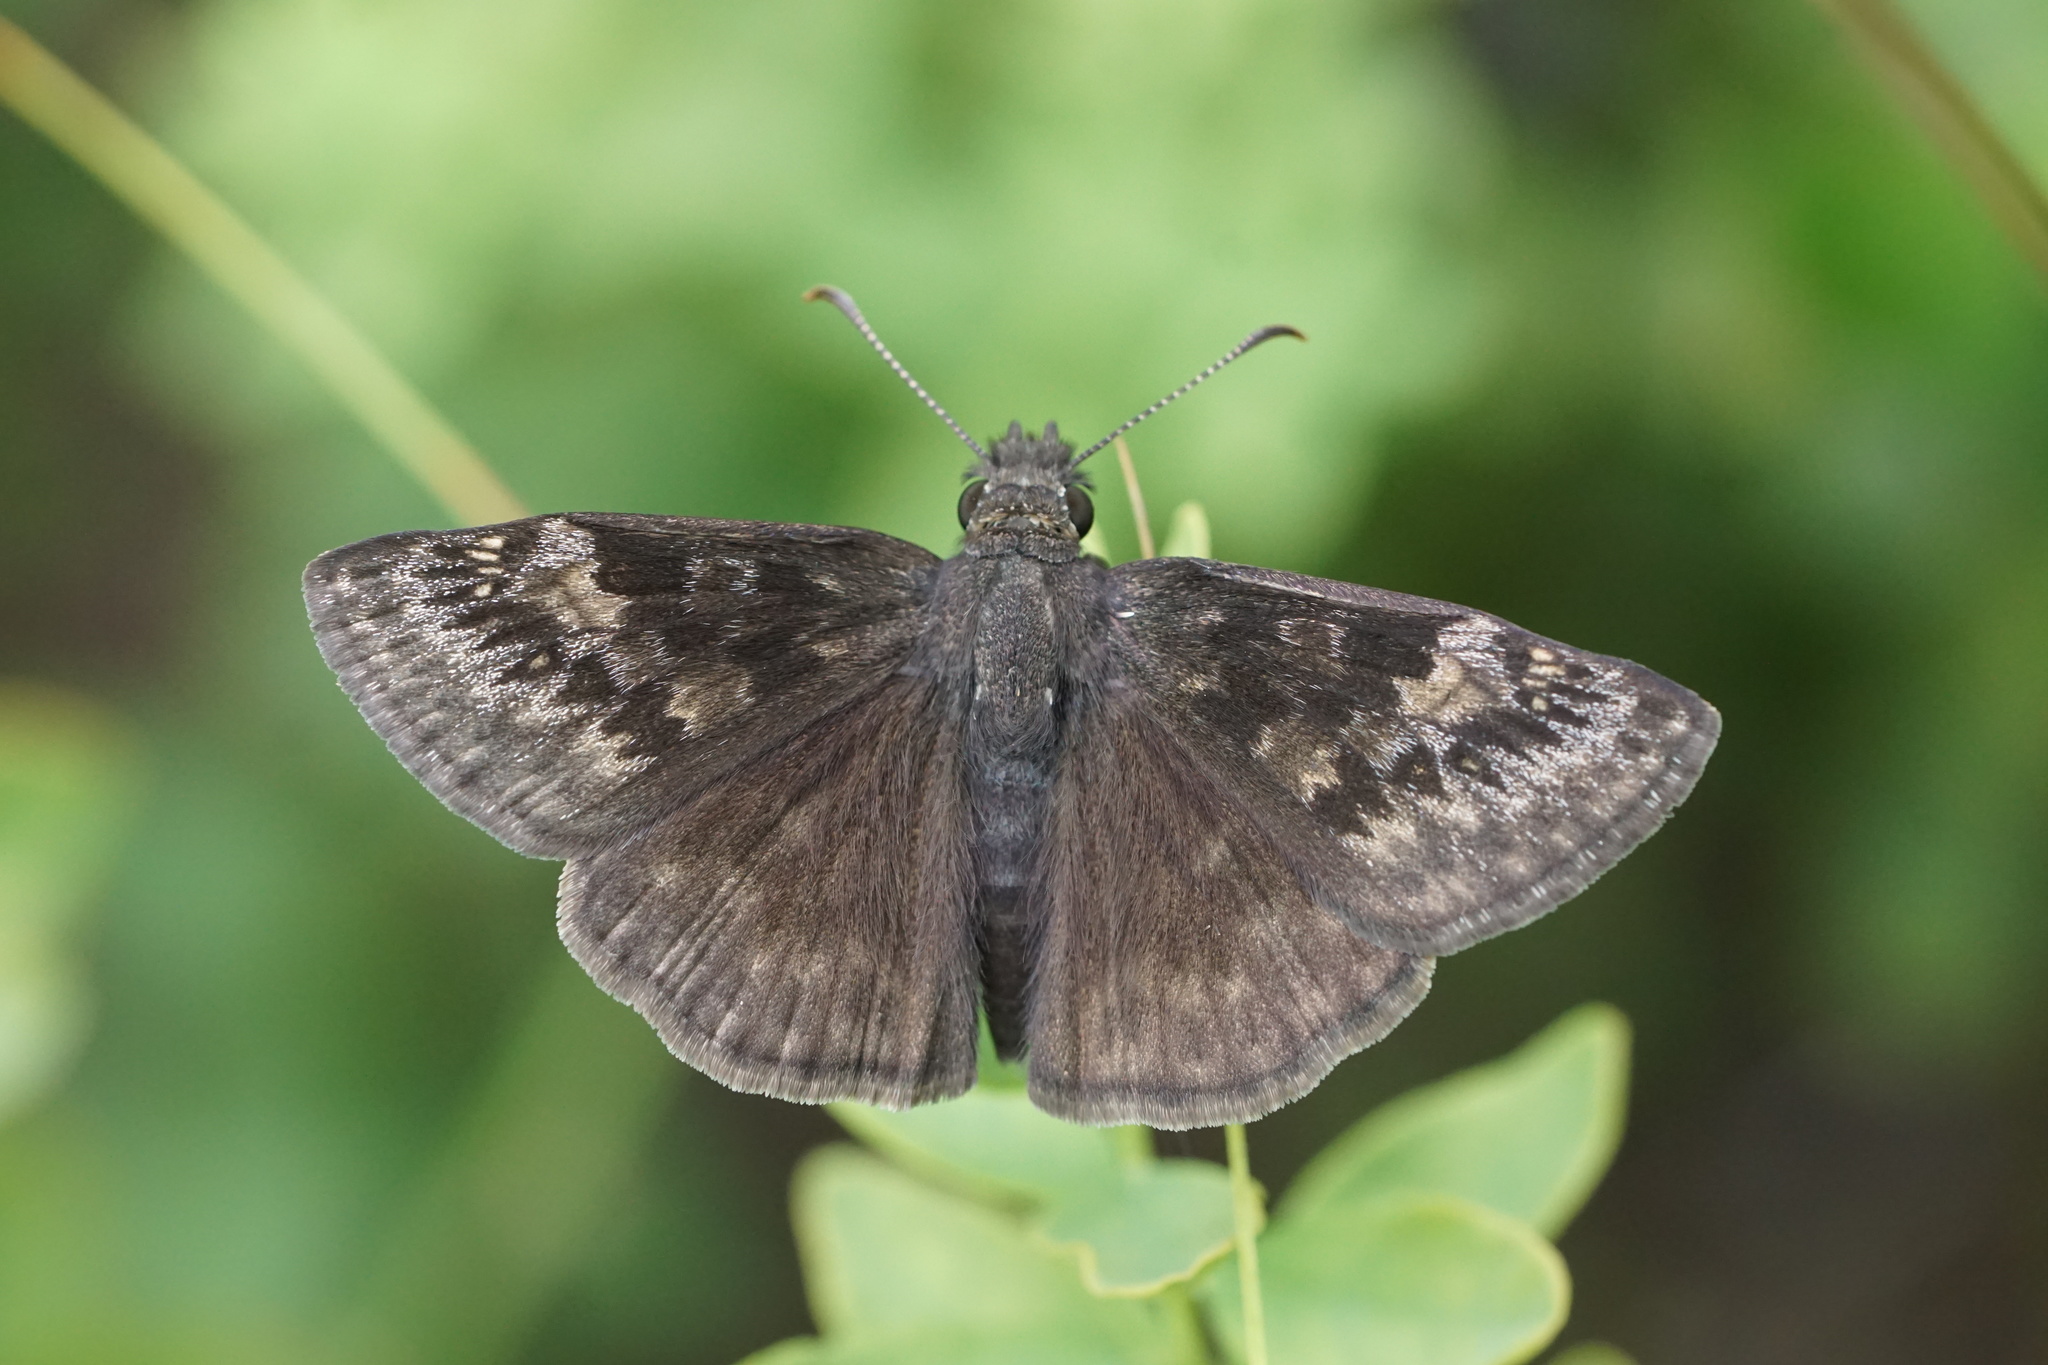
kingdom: Animalia
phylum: Arthropoda
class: Insecta
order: Lepidoptera
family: Hesperiidae
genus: Erynnis
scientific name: Erynnis baptisiae
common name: Wild indigo duskywing
